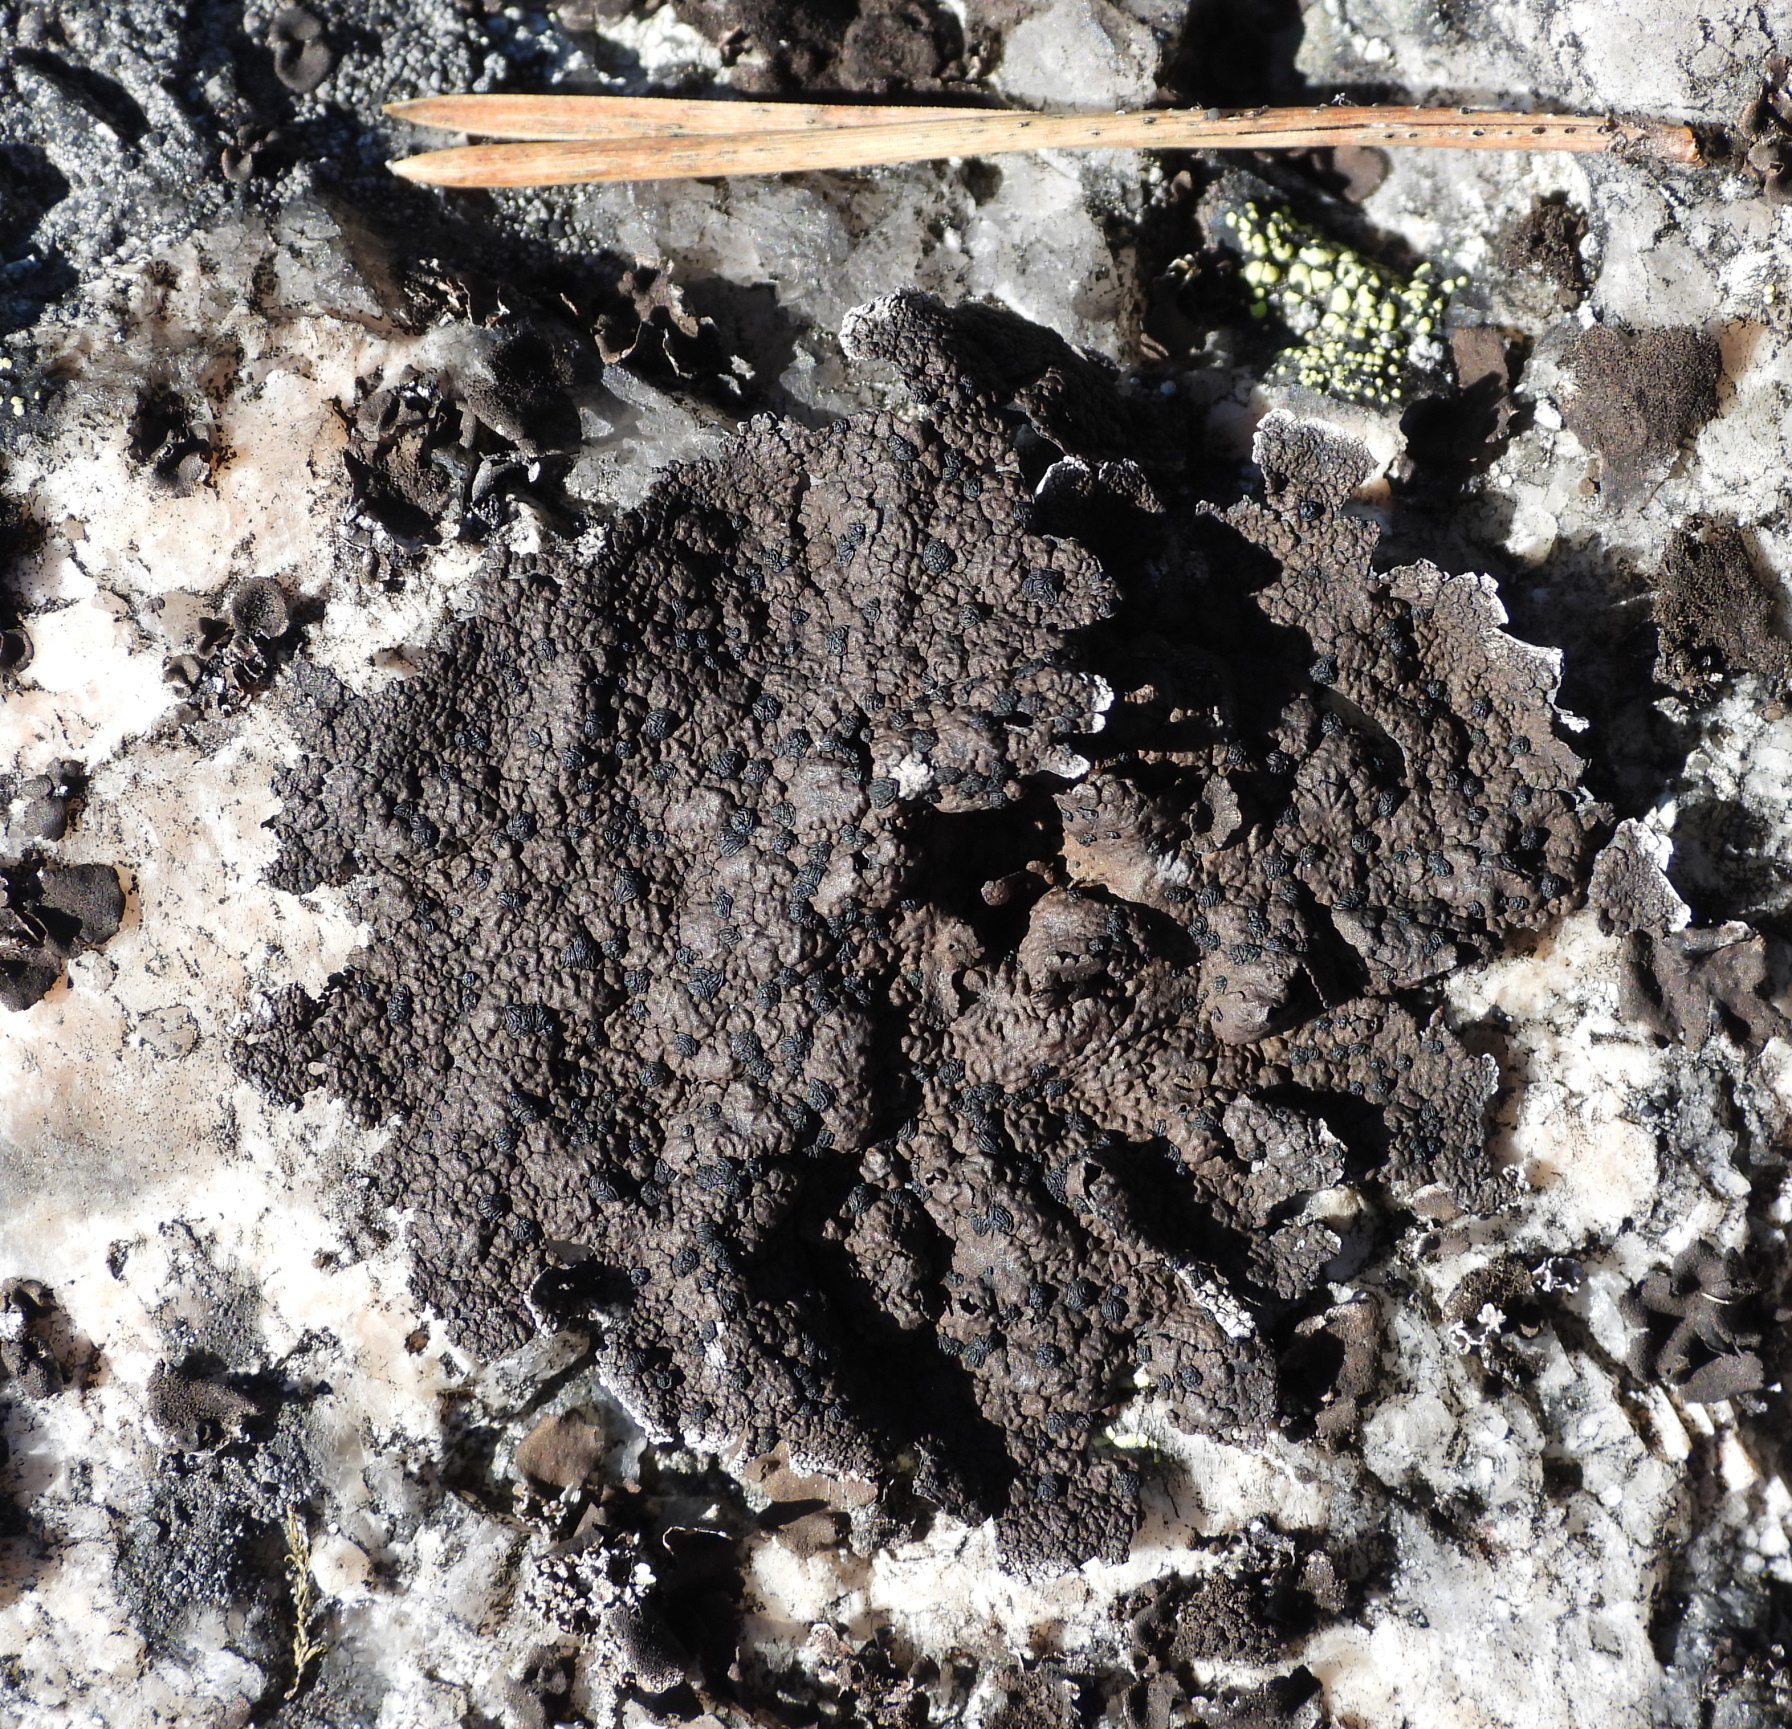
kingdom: Fungi
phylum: Ascomycota
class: Lecanoromycetes
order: Umbilicariales
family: Umbilicariaceae
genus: Umbilicaria
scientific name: Umbilicaria torrefacta
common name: Punctured rock tripe lichen
